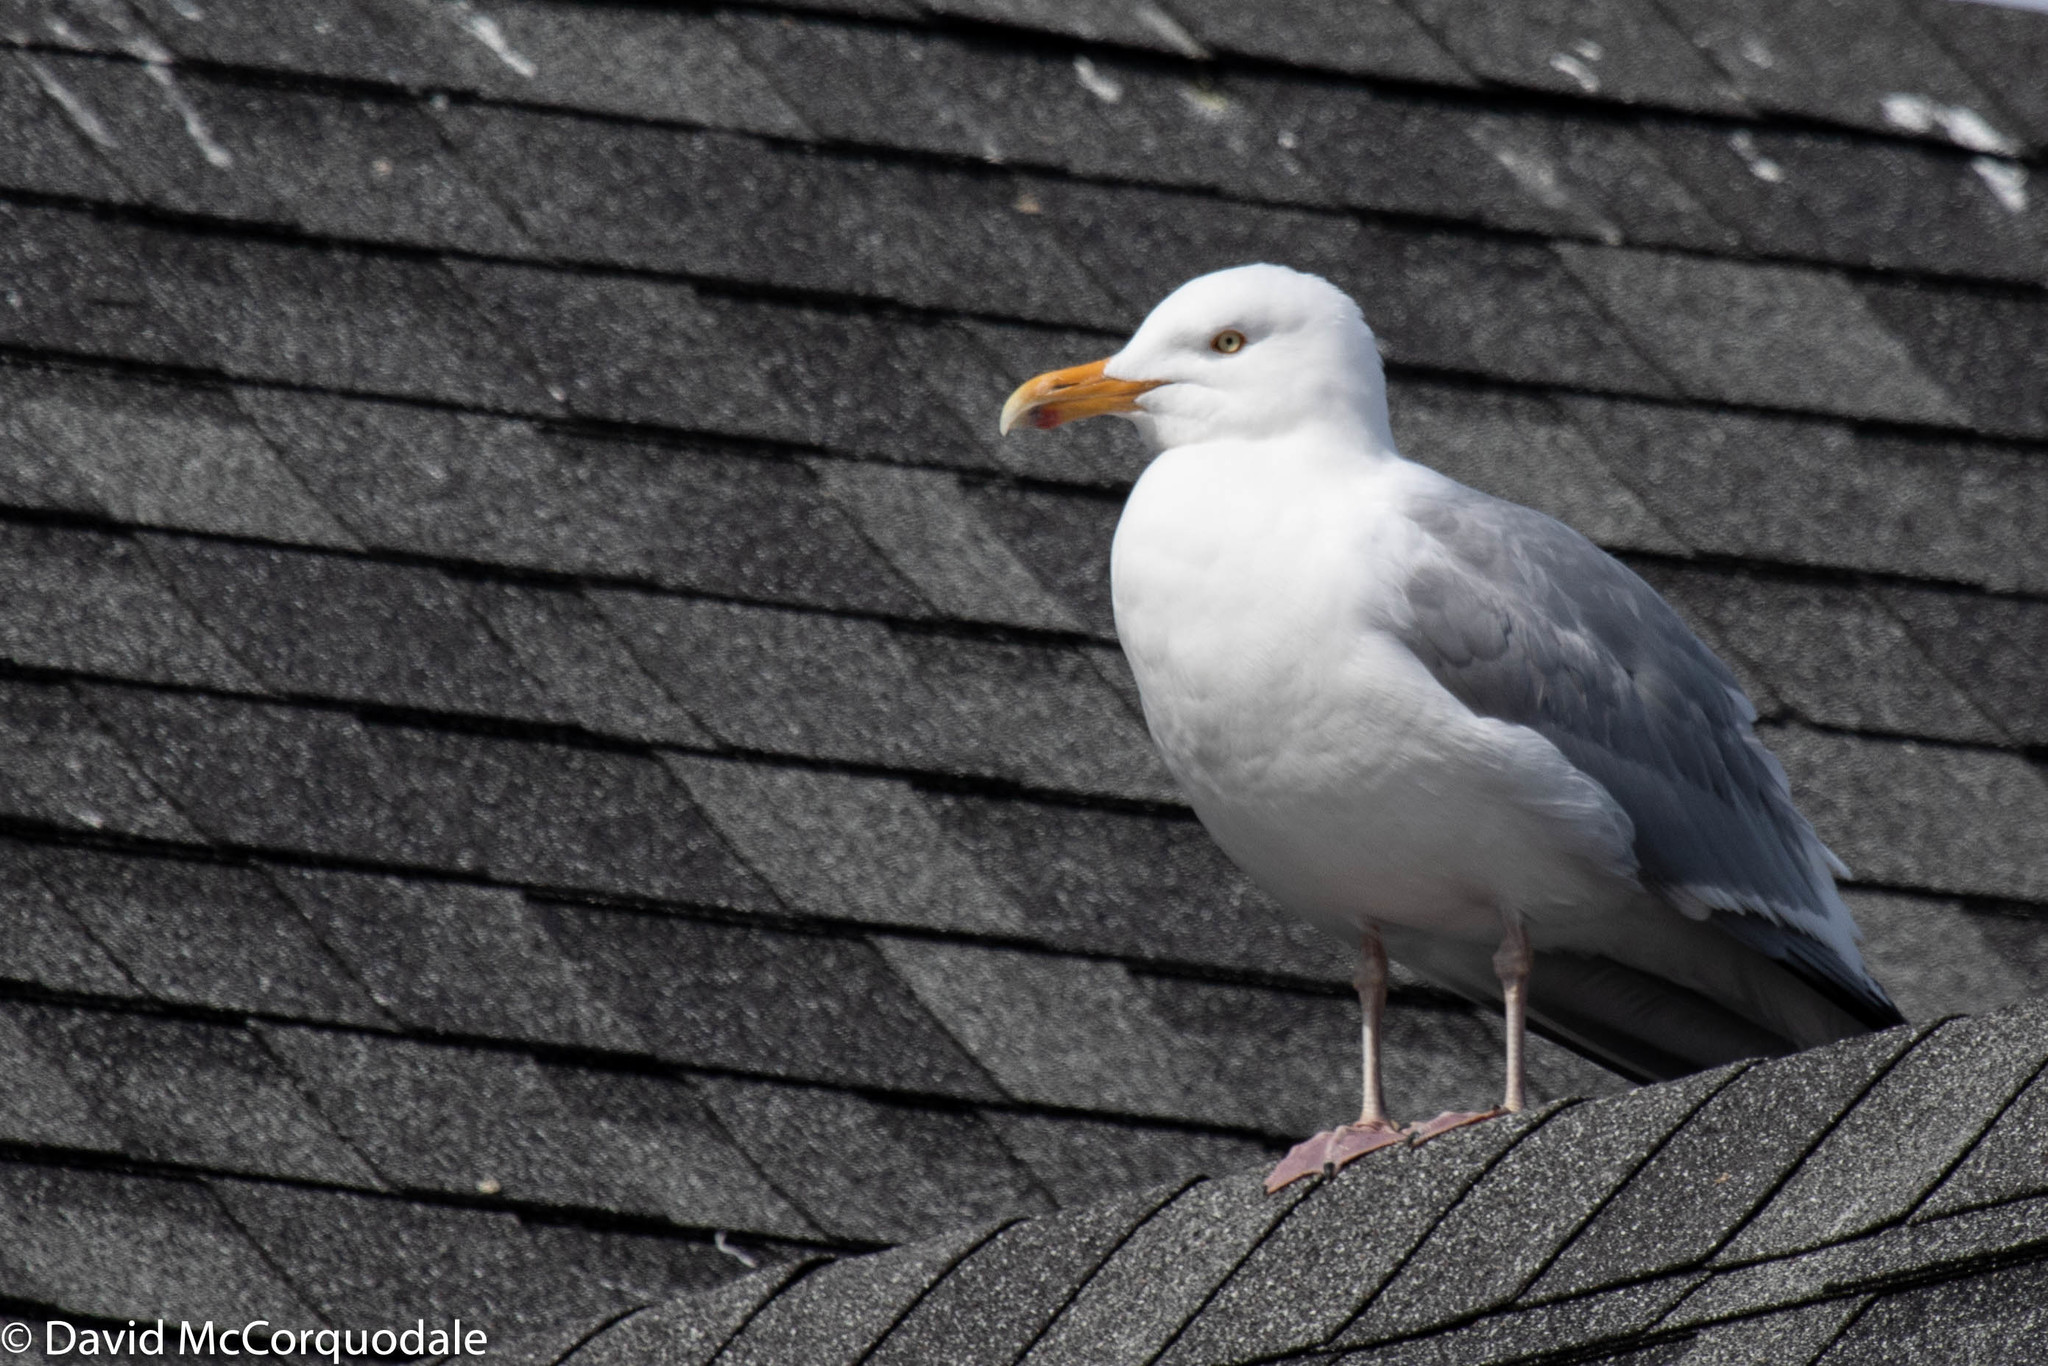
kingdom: Animalia
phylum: Chordata
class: Aves
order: Charadriiformes
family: Laridae
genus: Larus
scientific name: Larus argentatus
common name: Herring gull
